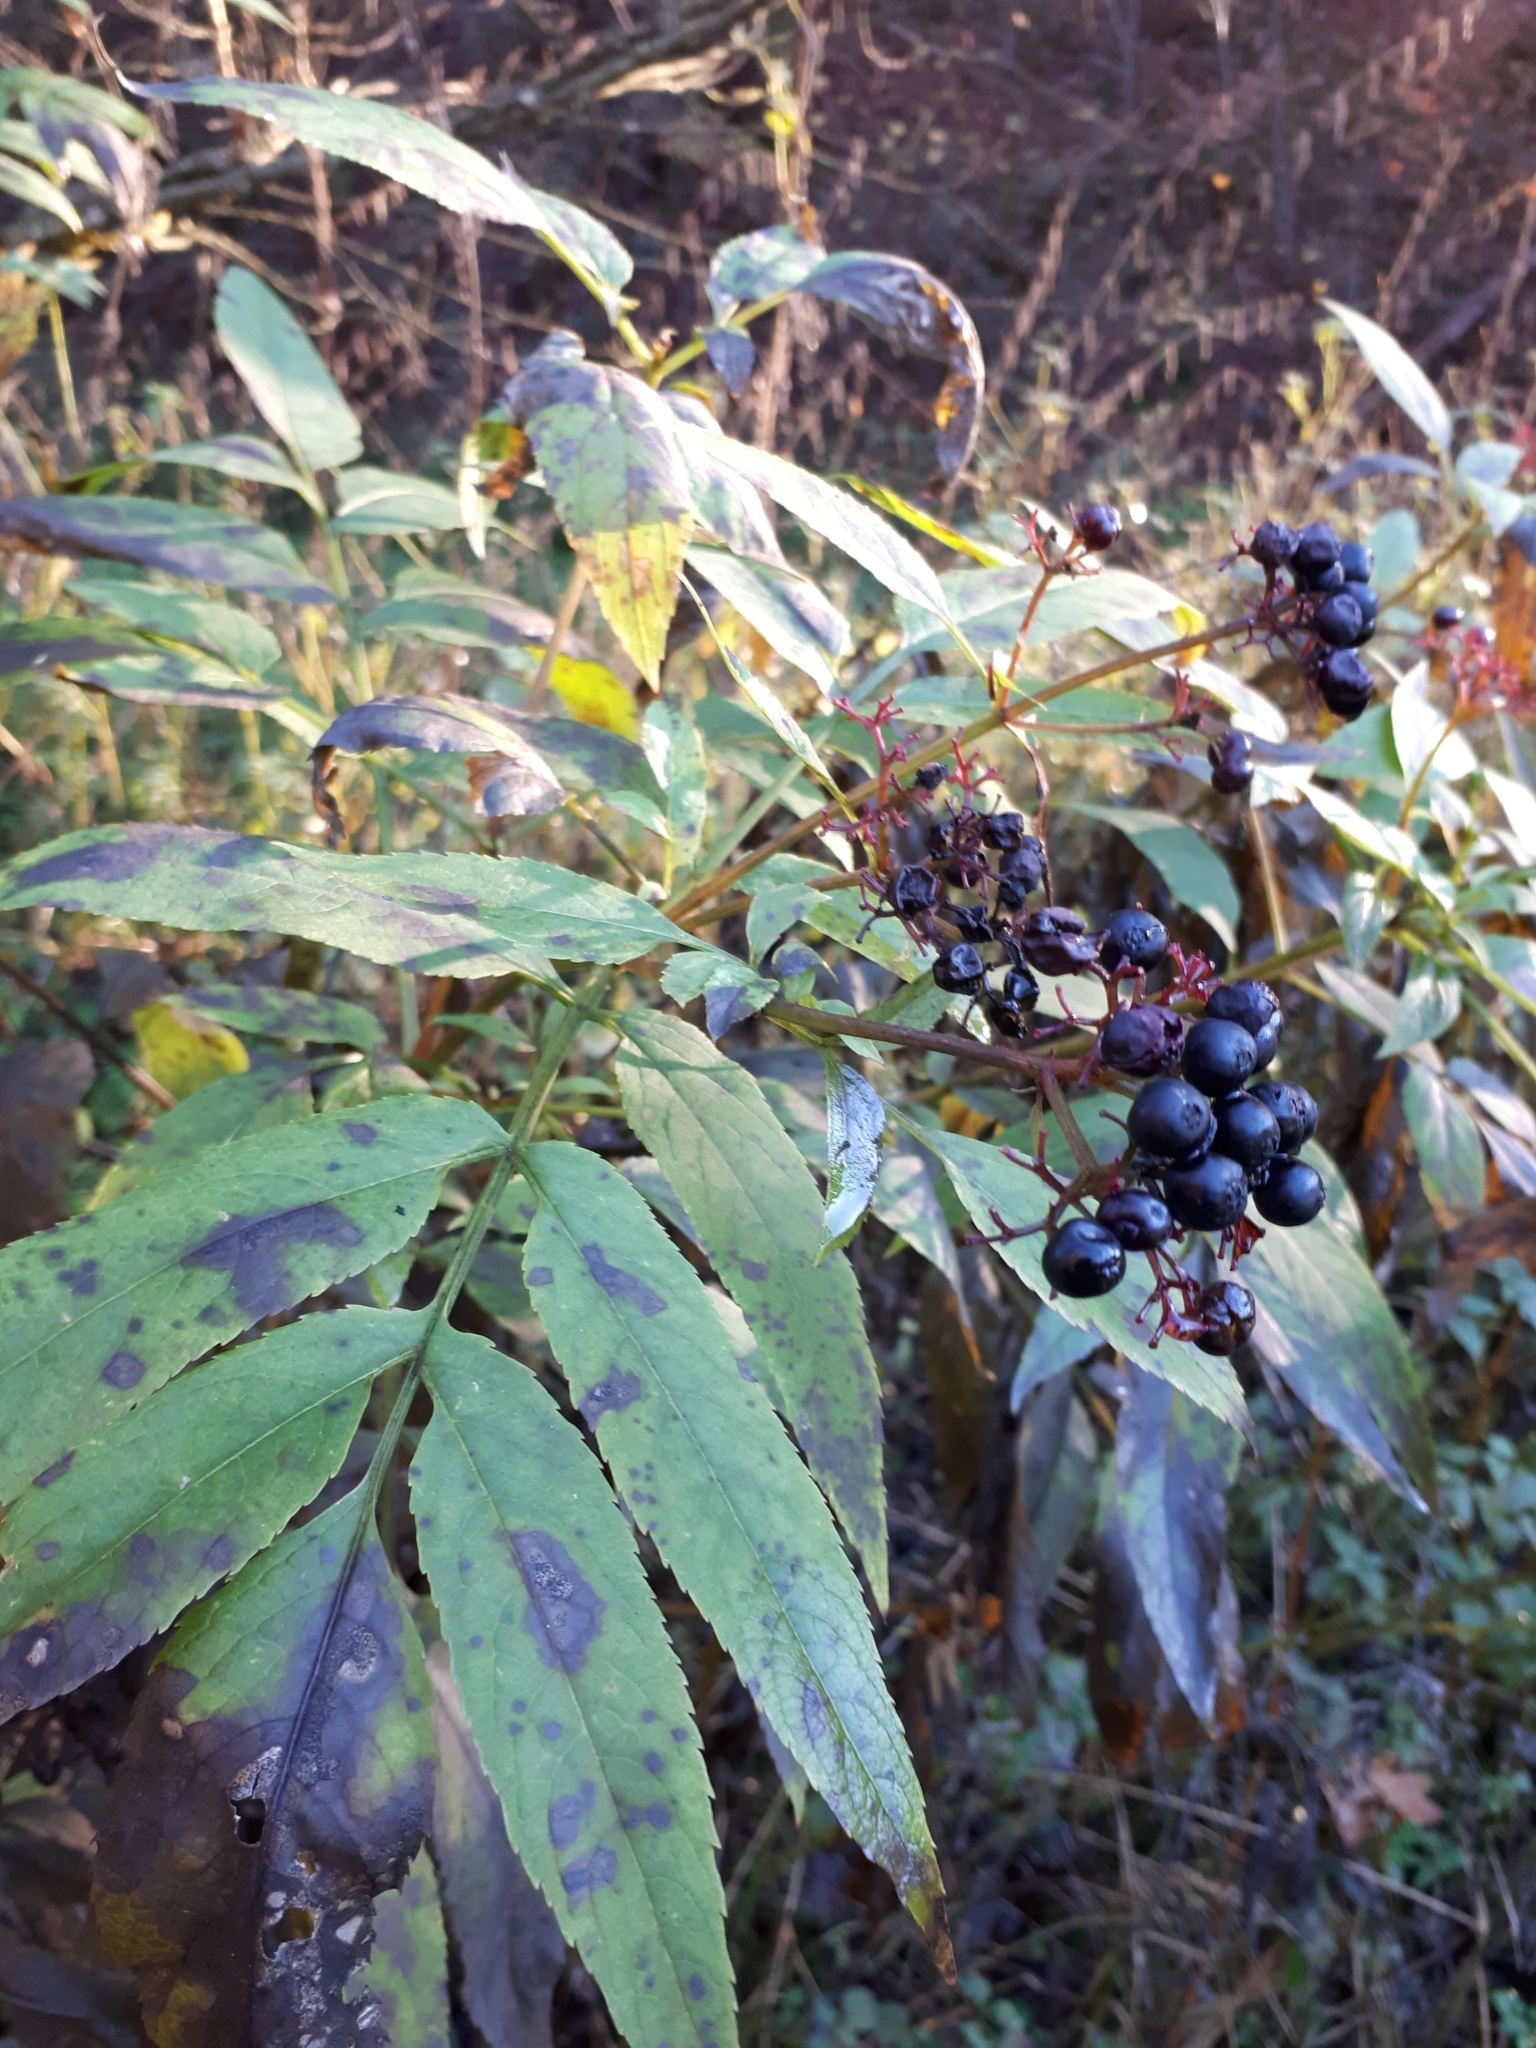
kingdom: Plantae
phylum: Tracheophyta
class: Magnoliopsida
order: Dipsacales
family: Viburnaceae
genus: Sambucus
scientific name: Sambucus ebulus
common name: Dwarf elder
